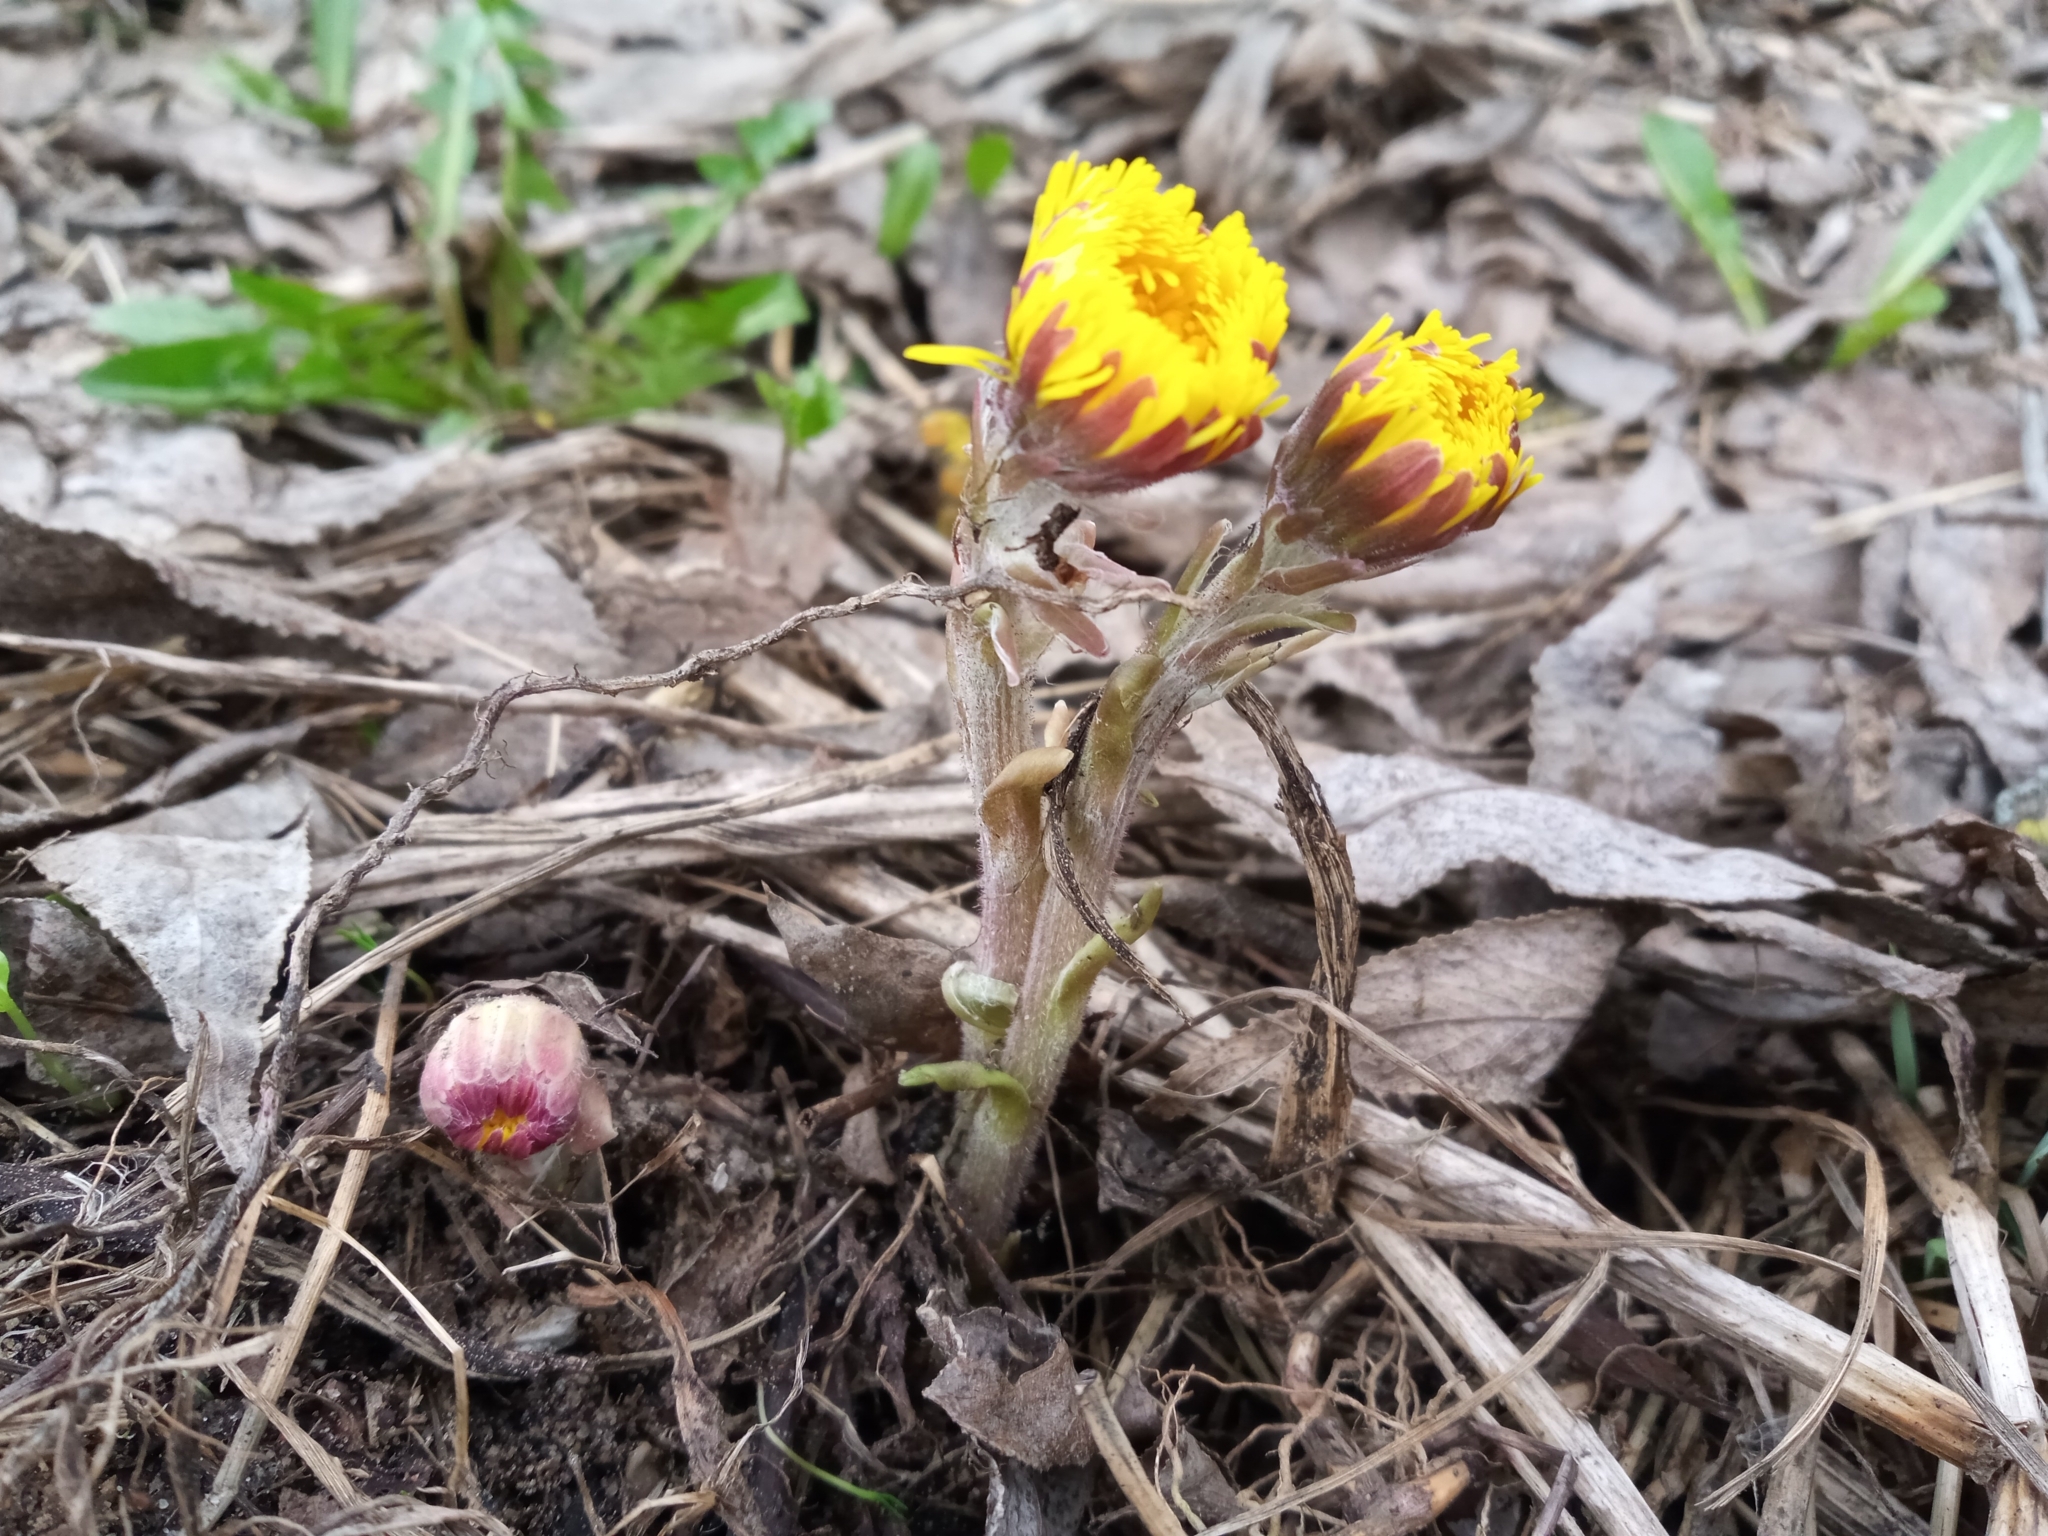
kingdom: Plantae
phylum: Tracheophyta
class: Magnoliopsida
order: Asterales
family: Asteraceae
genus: Tussilago
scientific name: Tussilago farfara
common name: Coltsfoot
